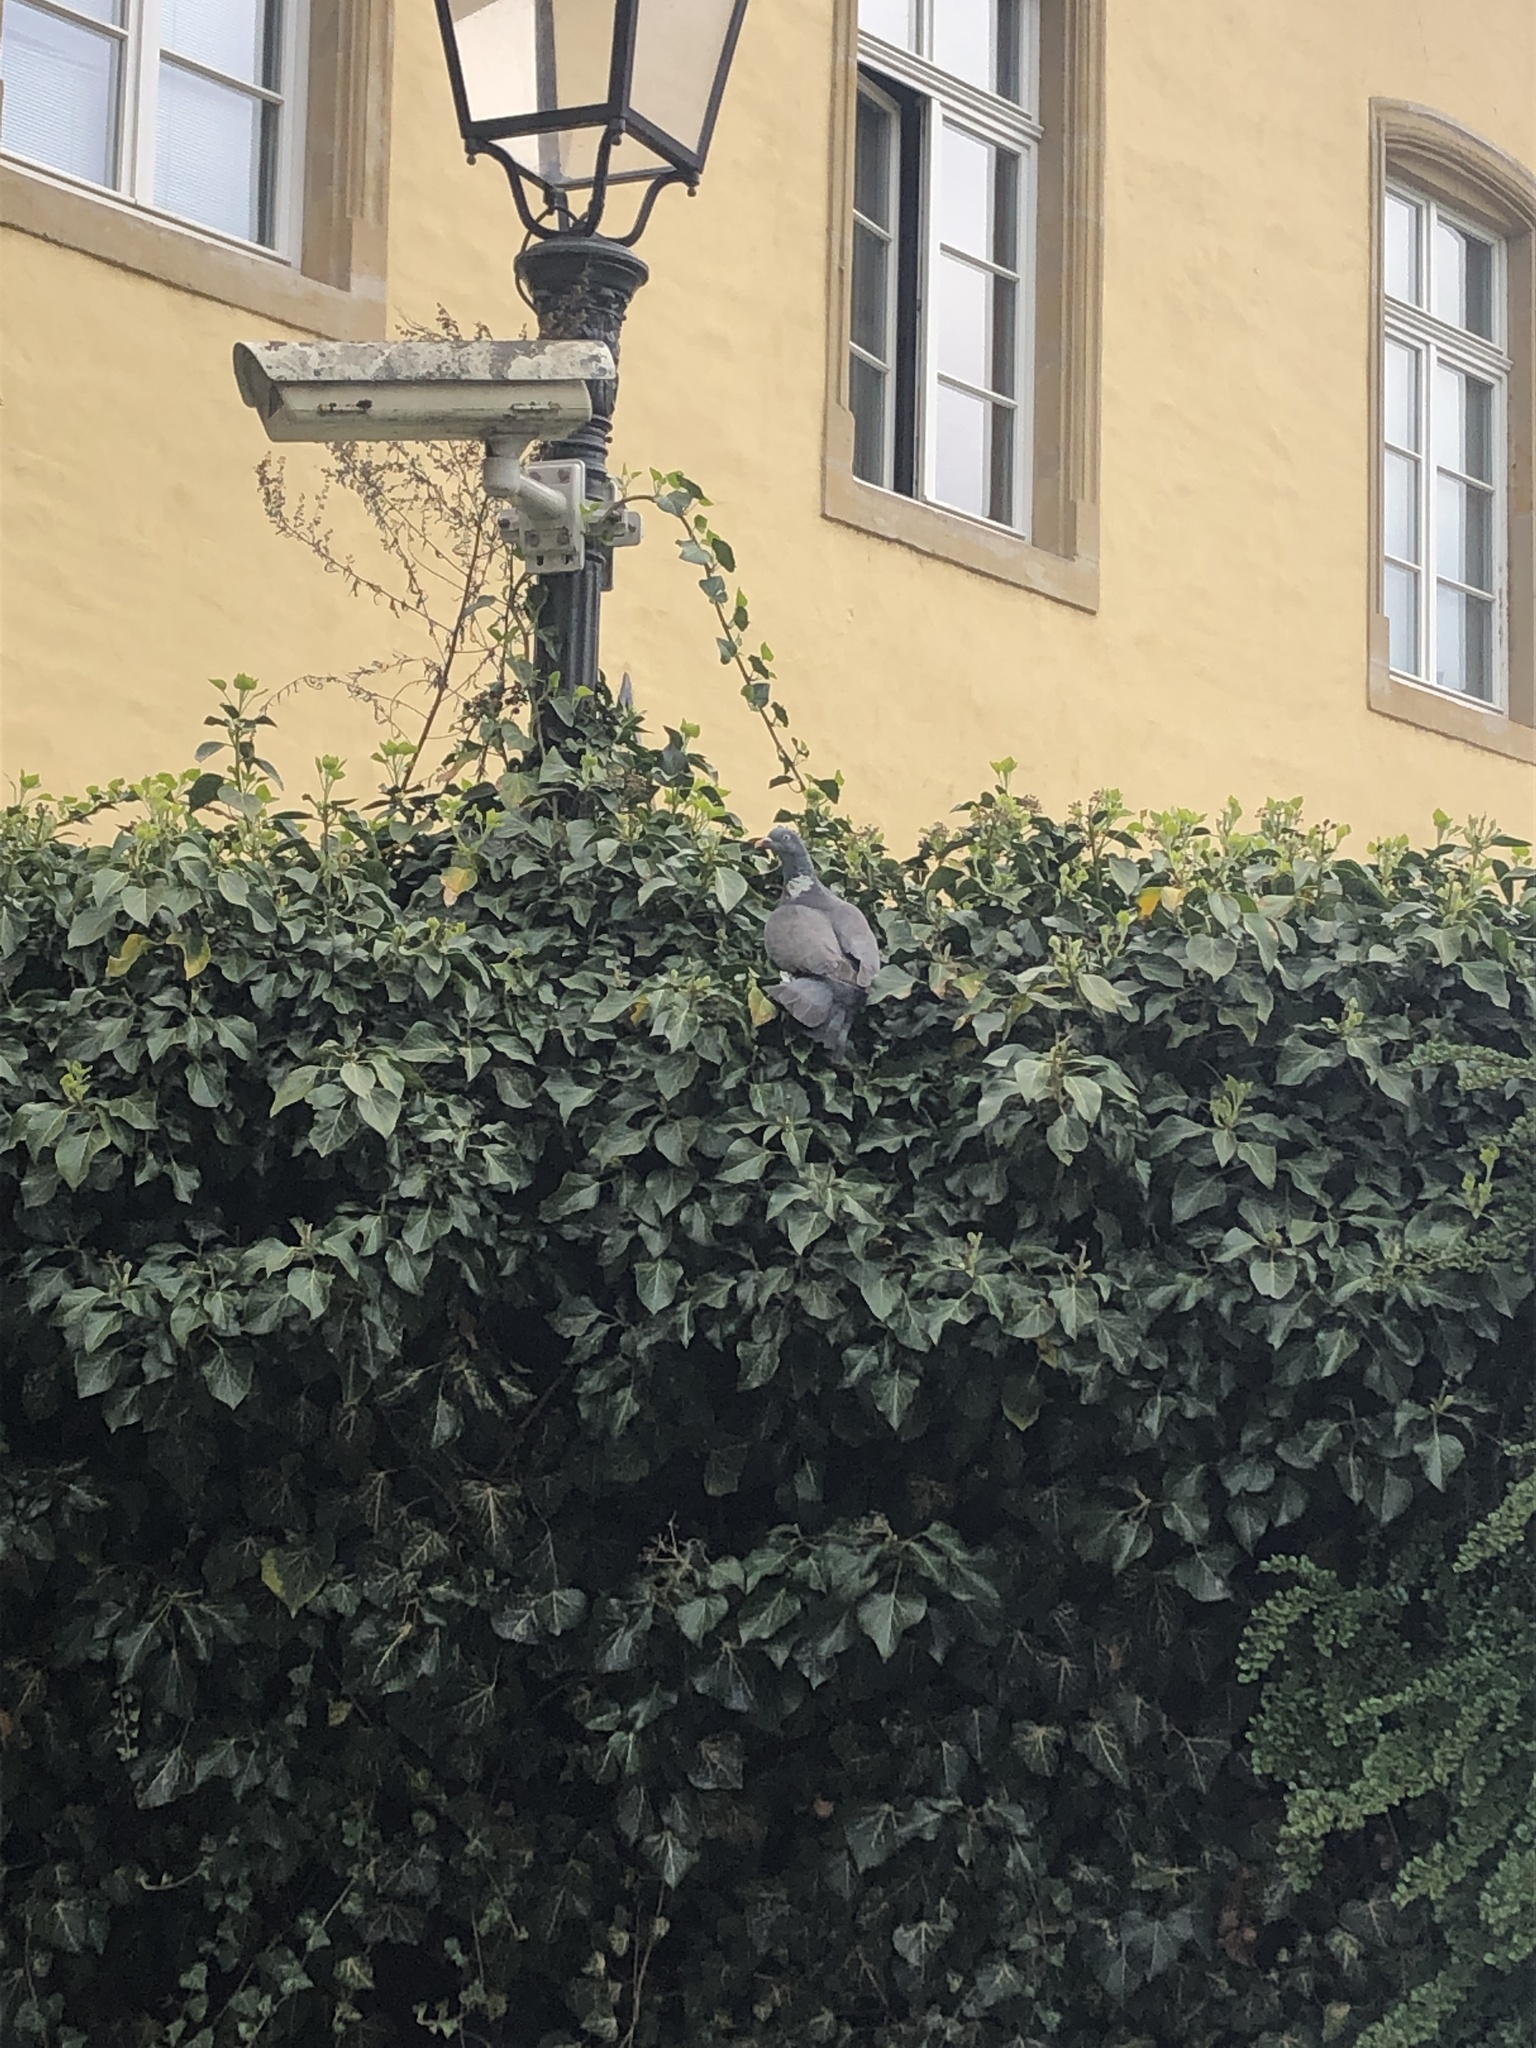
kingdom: Animalia
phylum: Chordata
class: Aves
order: Columbiformes
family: Columbidae
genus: Columba
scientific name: Columba palumbus
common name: Common wood pigeon
